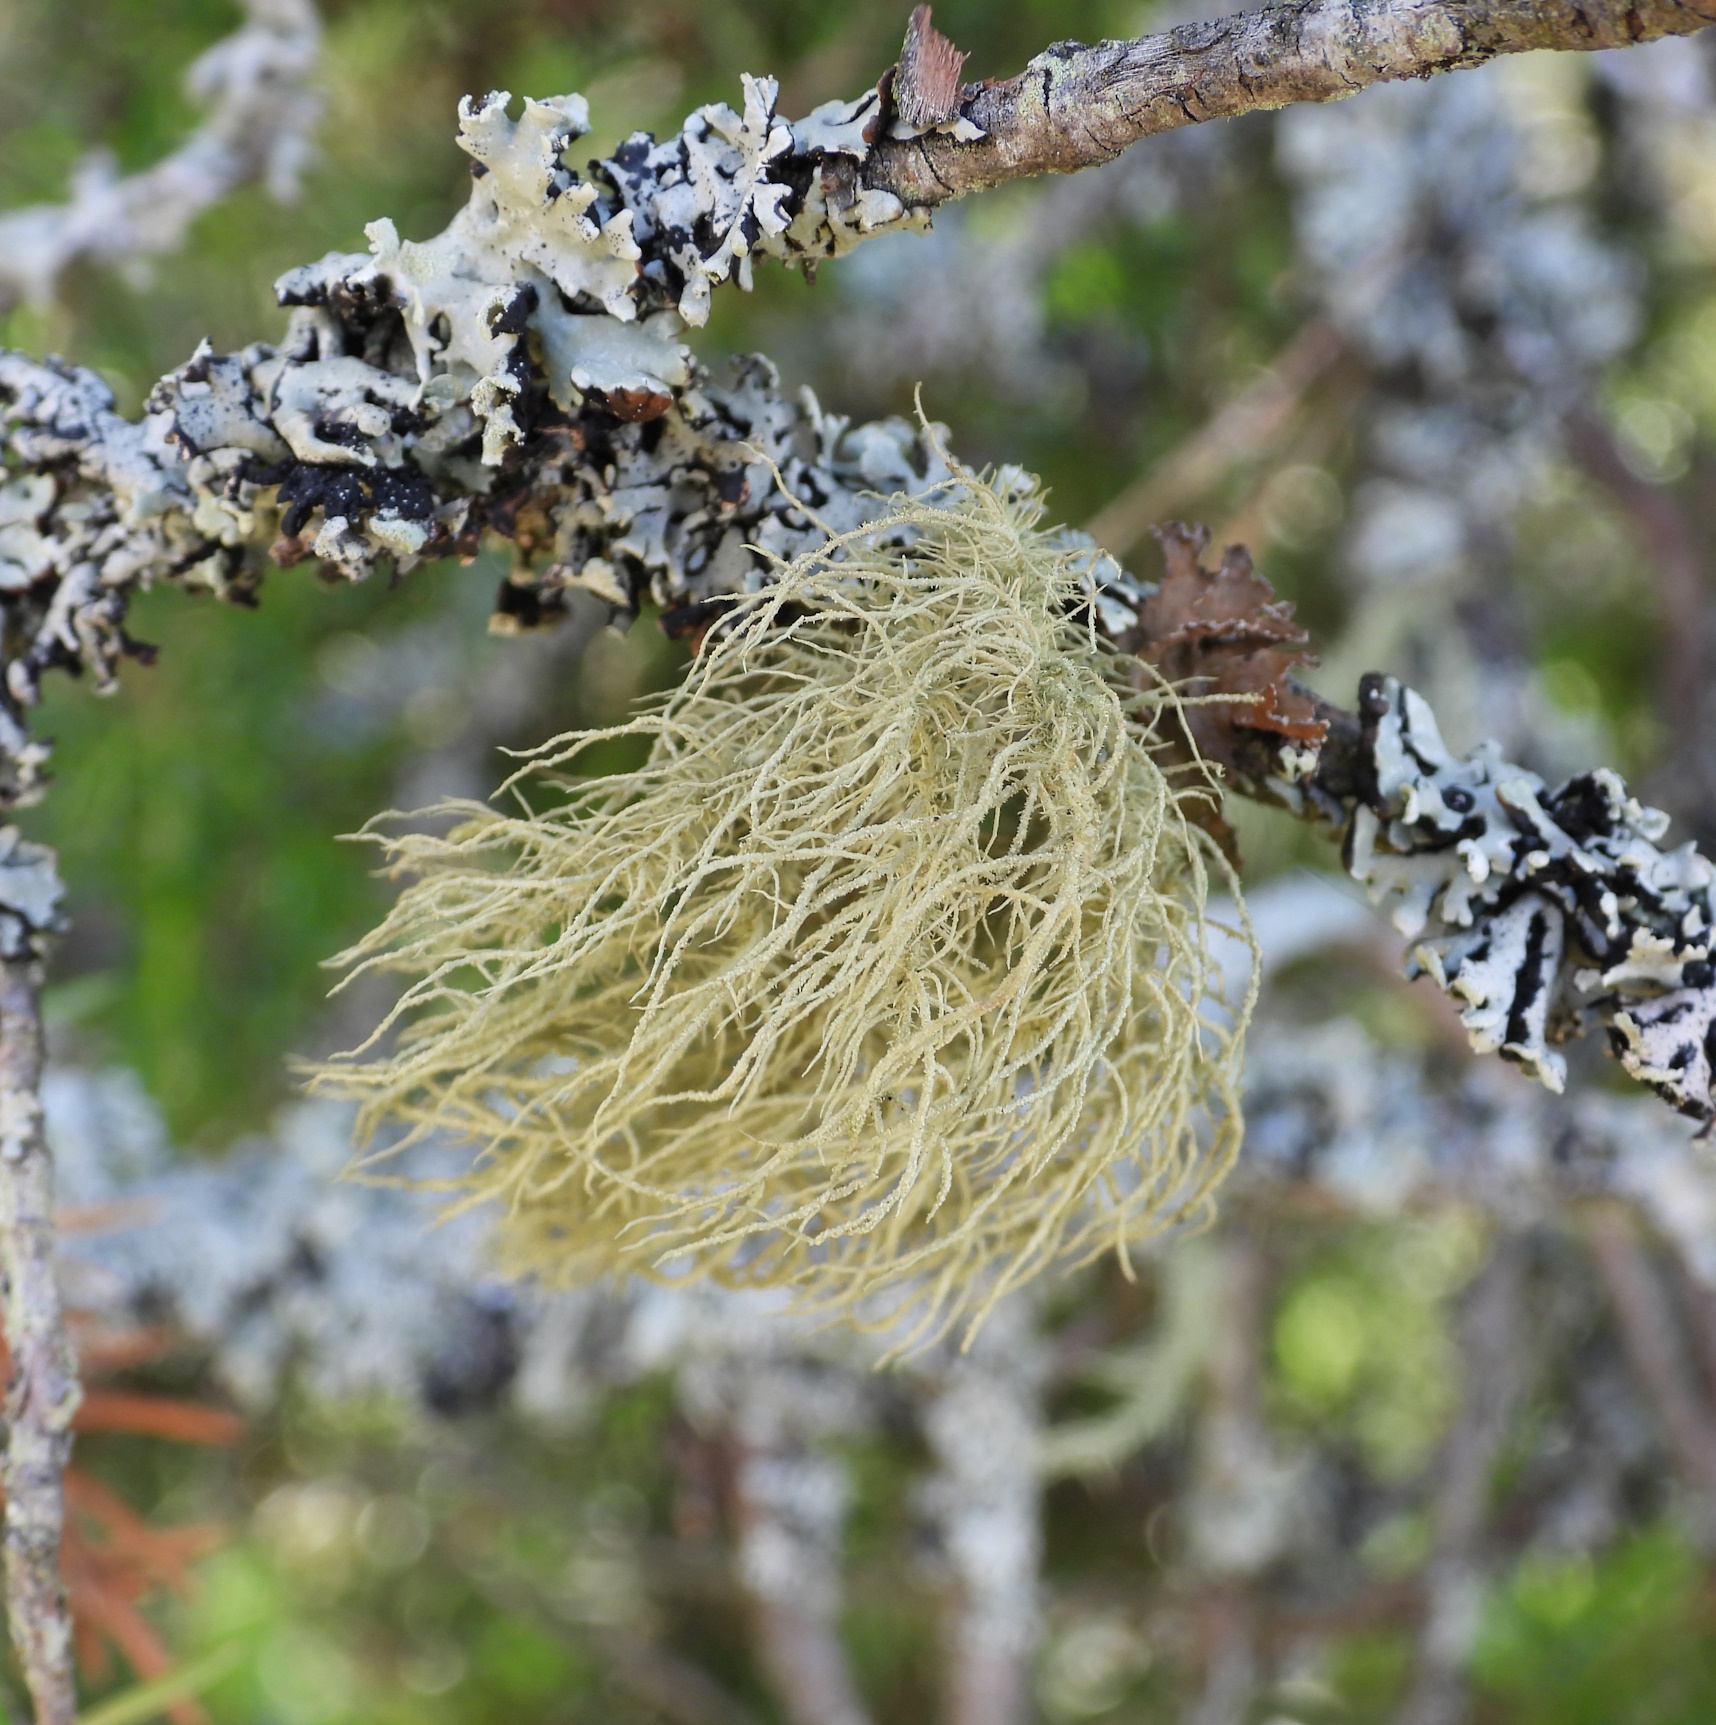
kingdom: Fungi
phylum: Ascomycota
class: Lecanoromycetes
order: Lecanorales
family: Parmeliaceae
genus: Usnea
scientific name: Usnea hirta
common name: Bristly beard lichen
